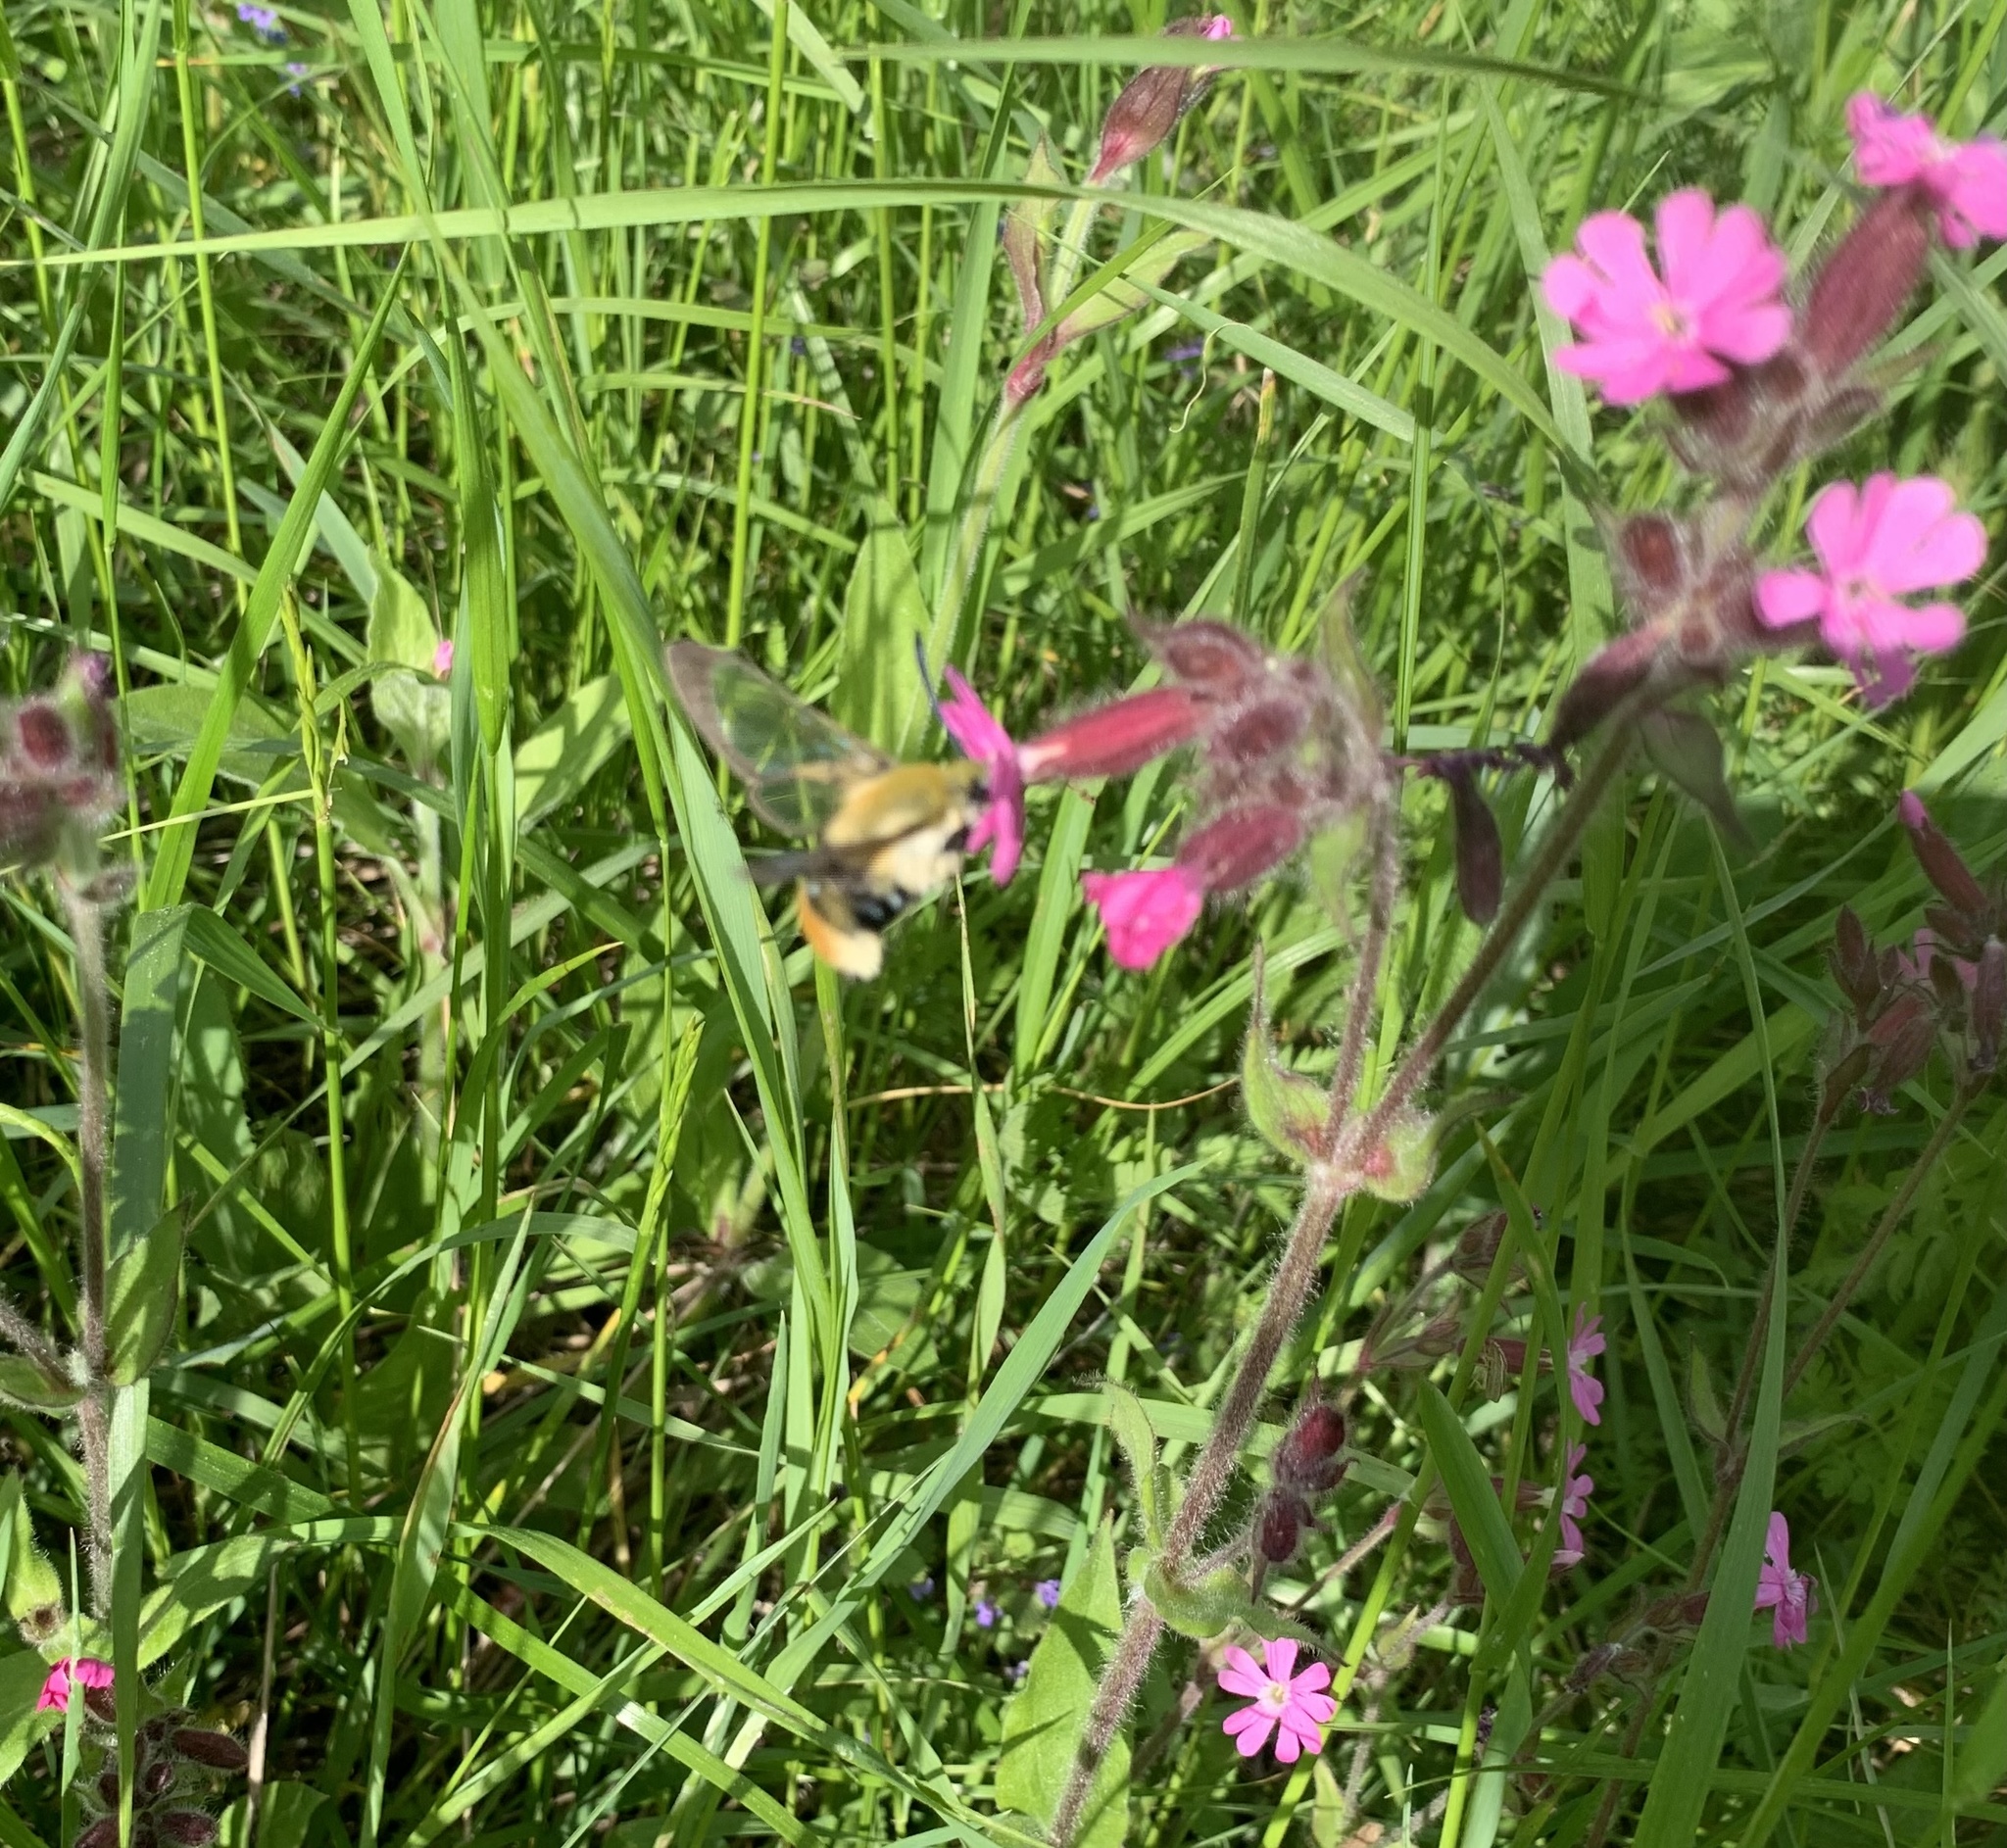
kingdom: Animalia
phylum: Arthropoda
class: Insecta
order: Lepidoptera
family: Sphingidae
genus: Hemaris
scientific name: Hemaris tityus
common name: Narrow-bordered bee hawk-moth
